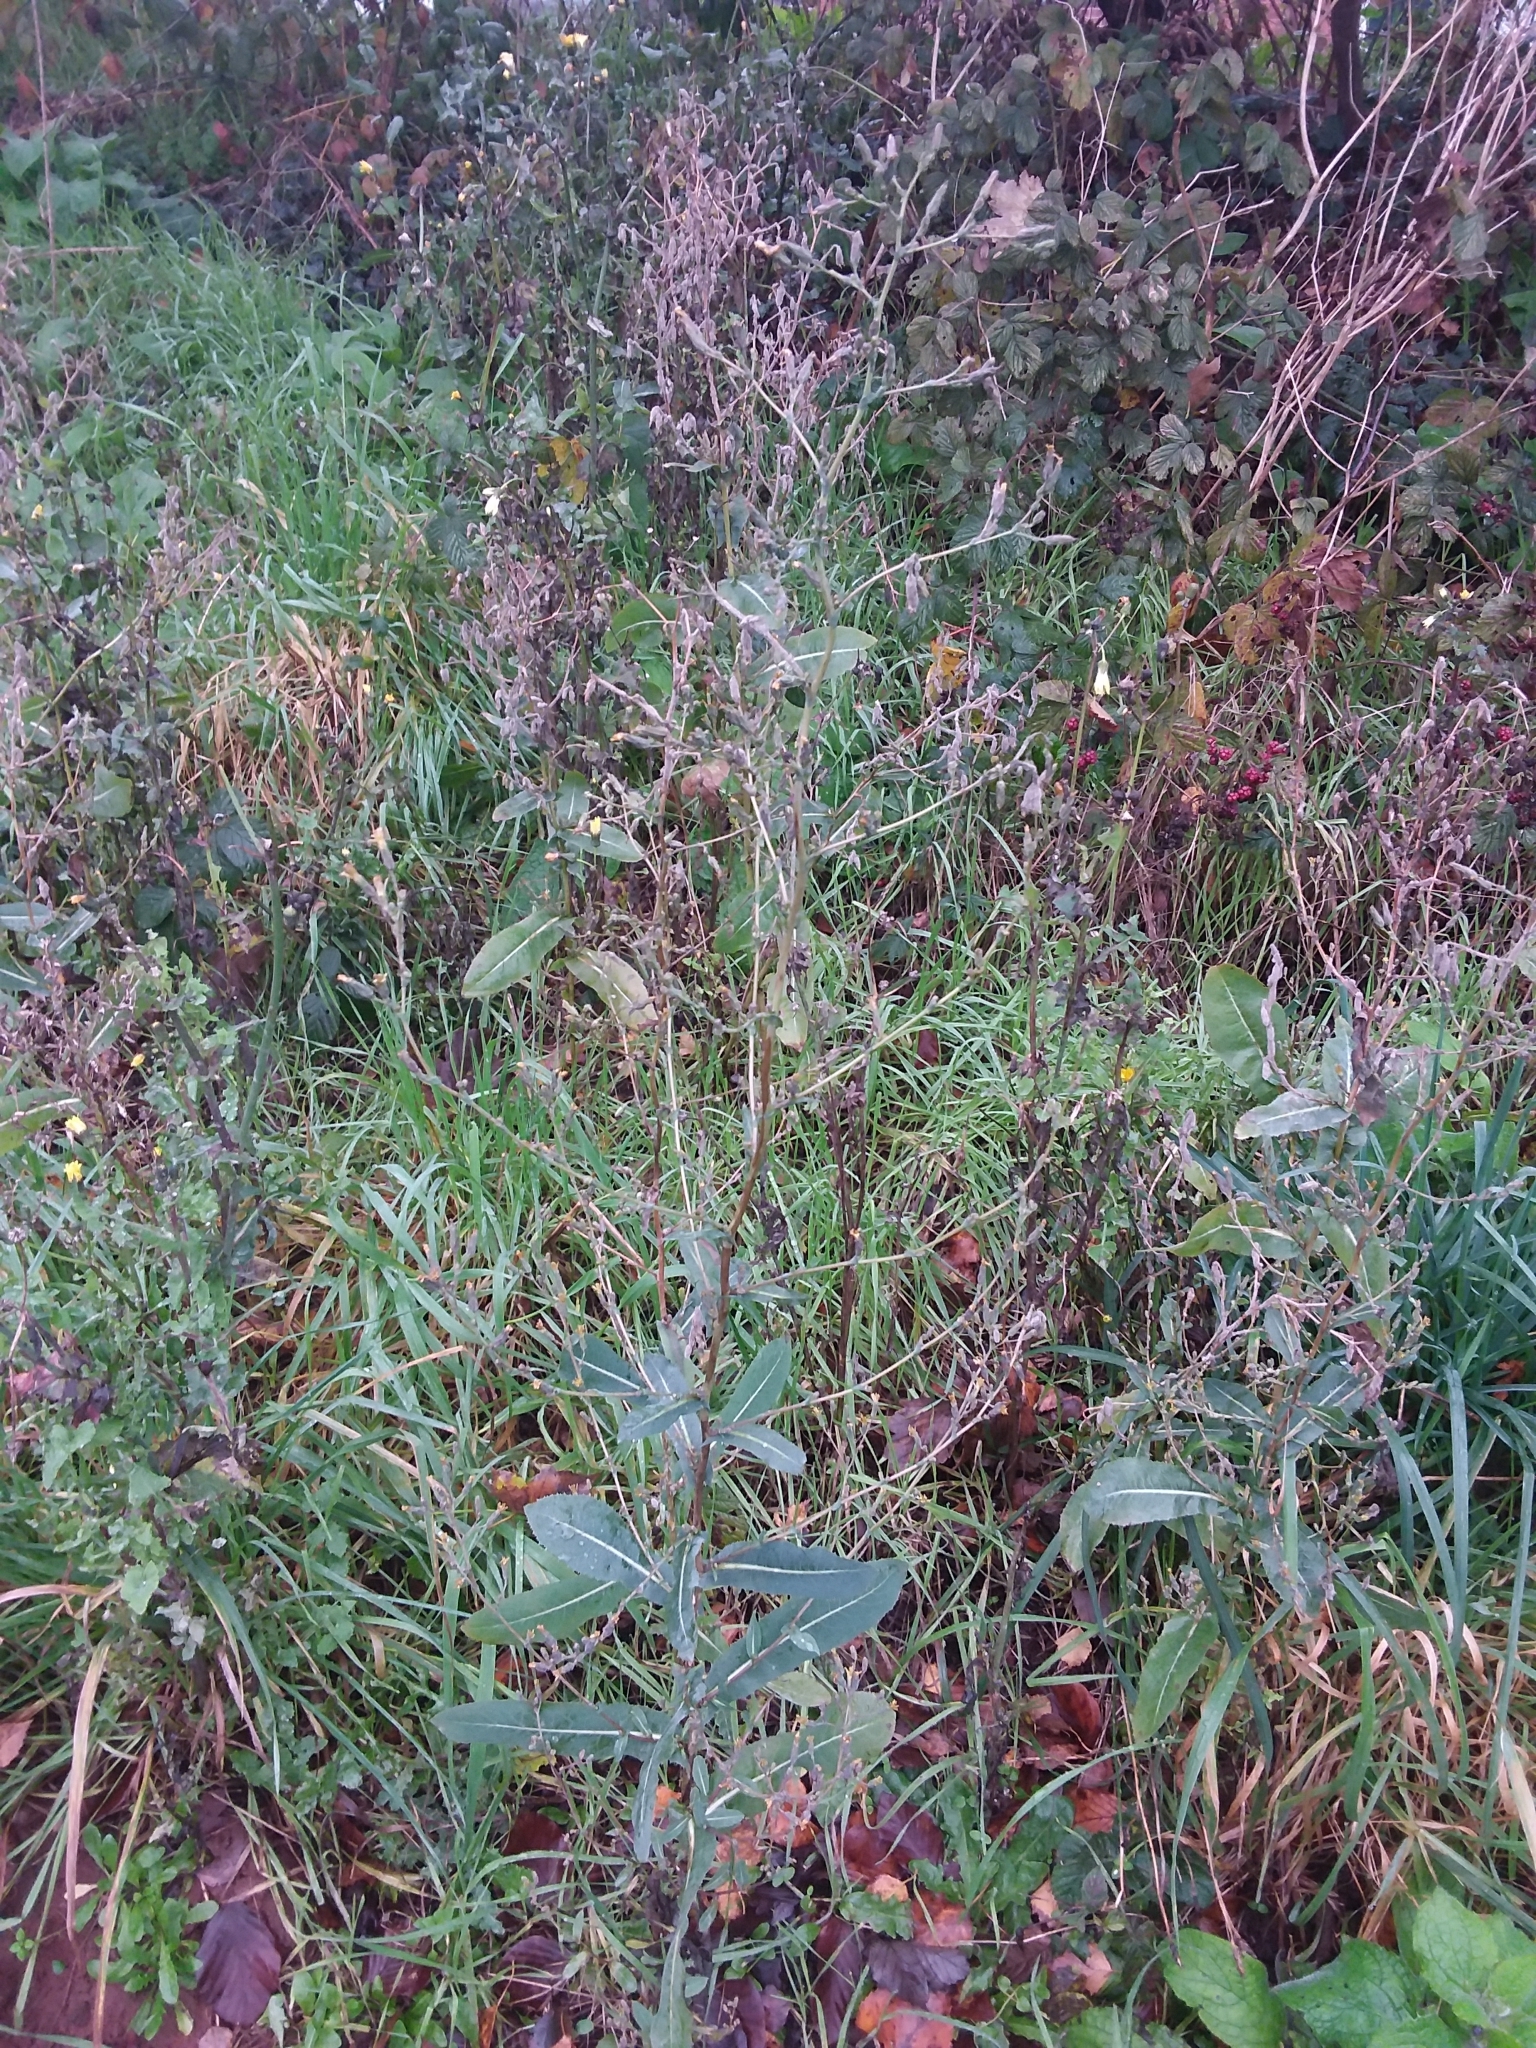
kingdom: Plantae
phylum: Tracheophyta
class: Magnoliopsida
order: Asterales
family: Asteraceae
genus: Lactuca
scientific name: Lactuca serriola
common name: Prickly lettuce
